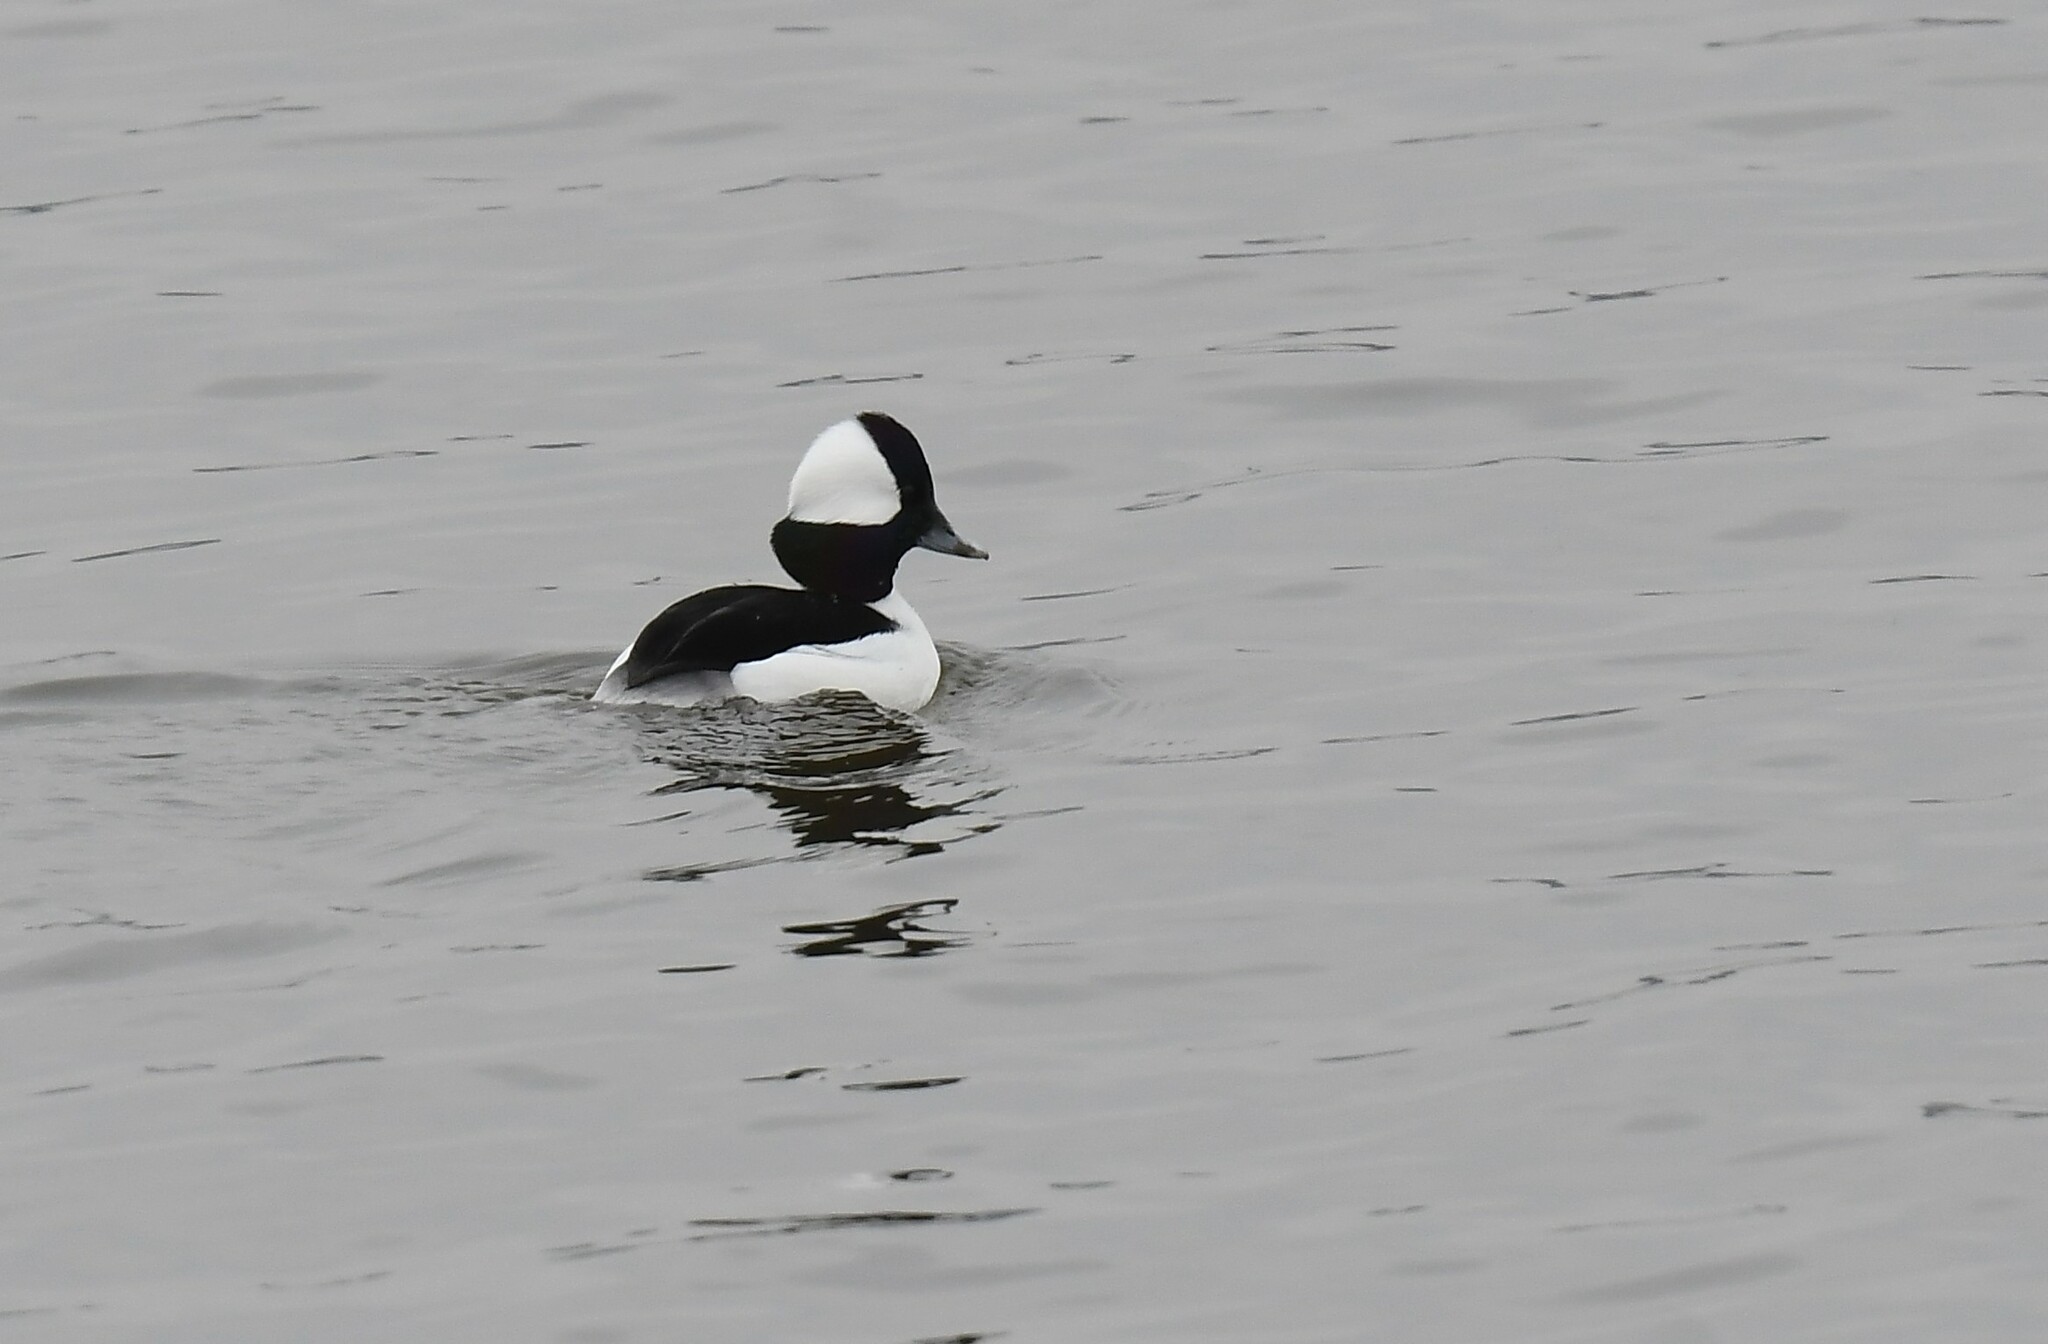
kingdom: Animalia
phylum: Chordata
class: Aves
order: Anseriformes
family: Anatidae
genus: Bucephala
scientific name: Bucephala albeola
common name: Bufflehead
